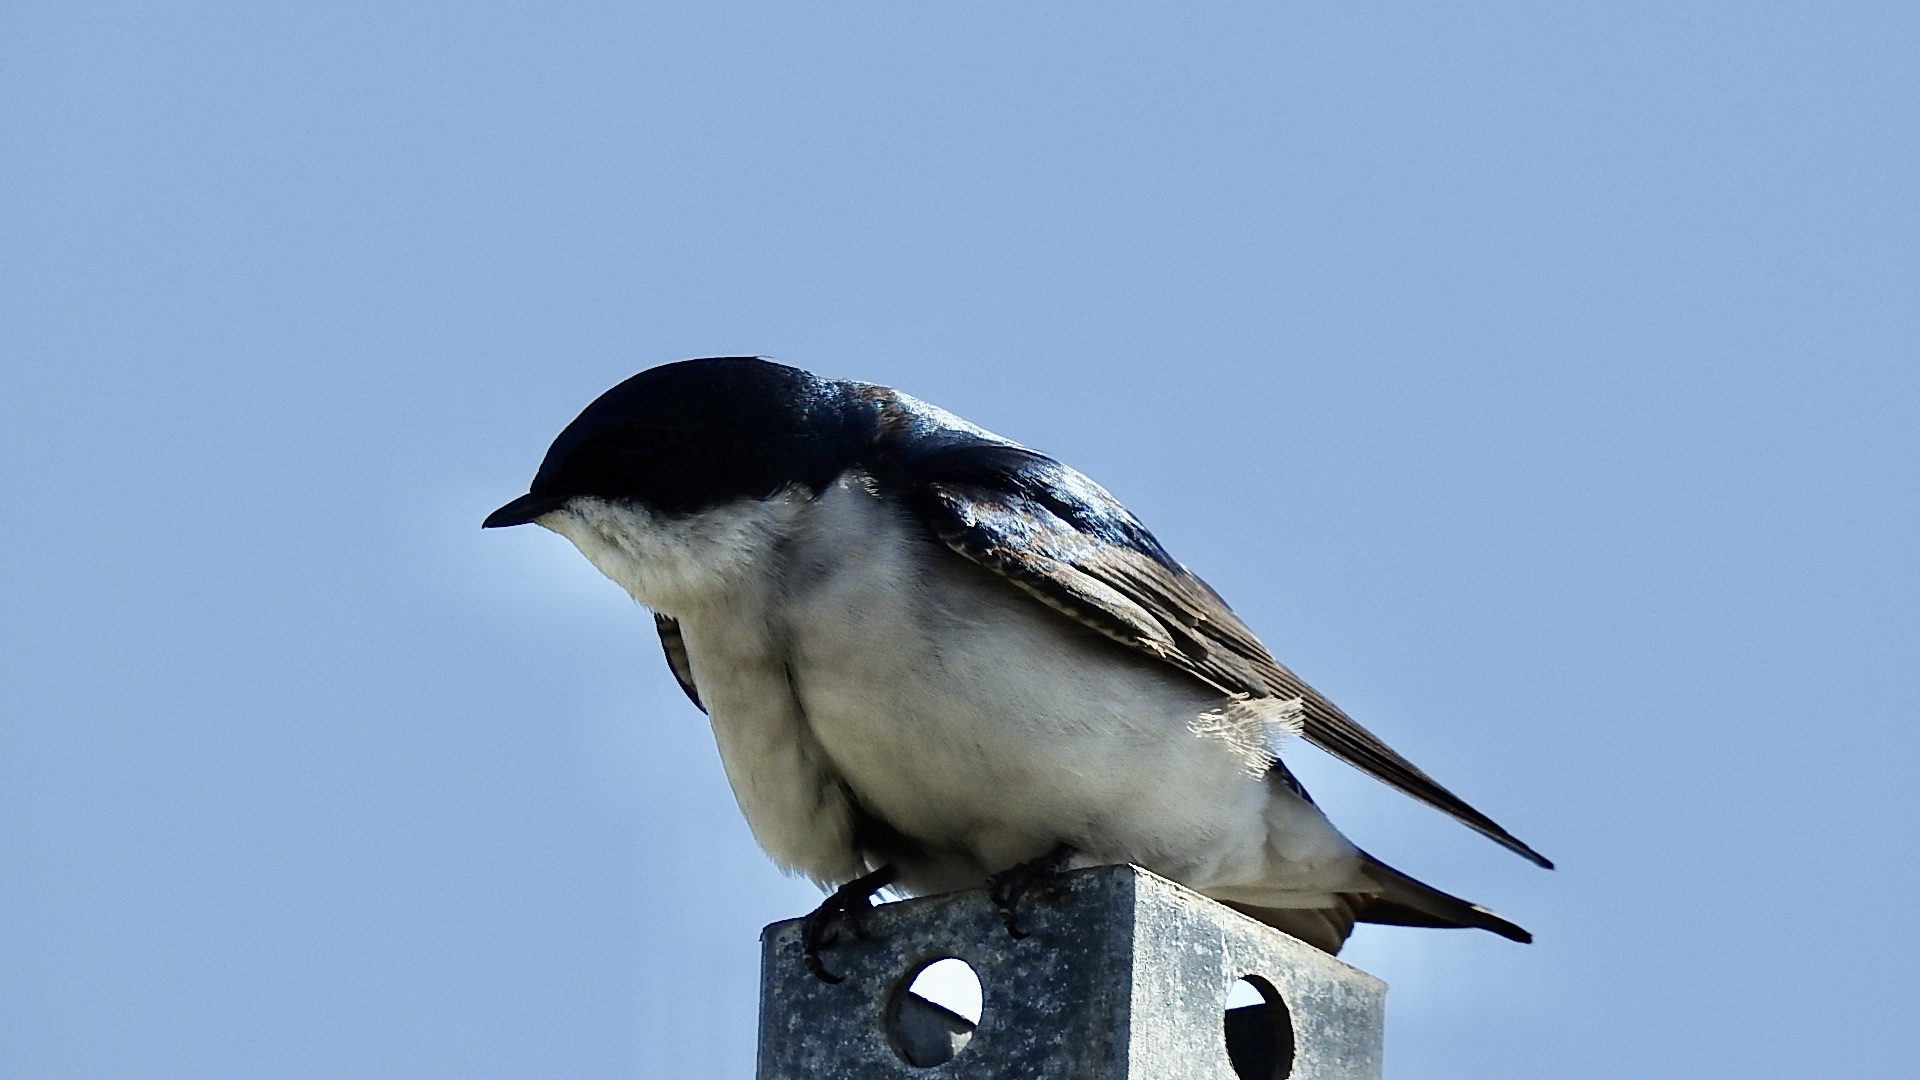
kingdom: Animalia
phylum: Chordata
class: Aves
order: Passeriformes
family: Hirundinidae
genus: Tachycineta
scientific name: Tachycineta bicolor
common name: Tree swallow
